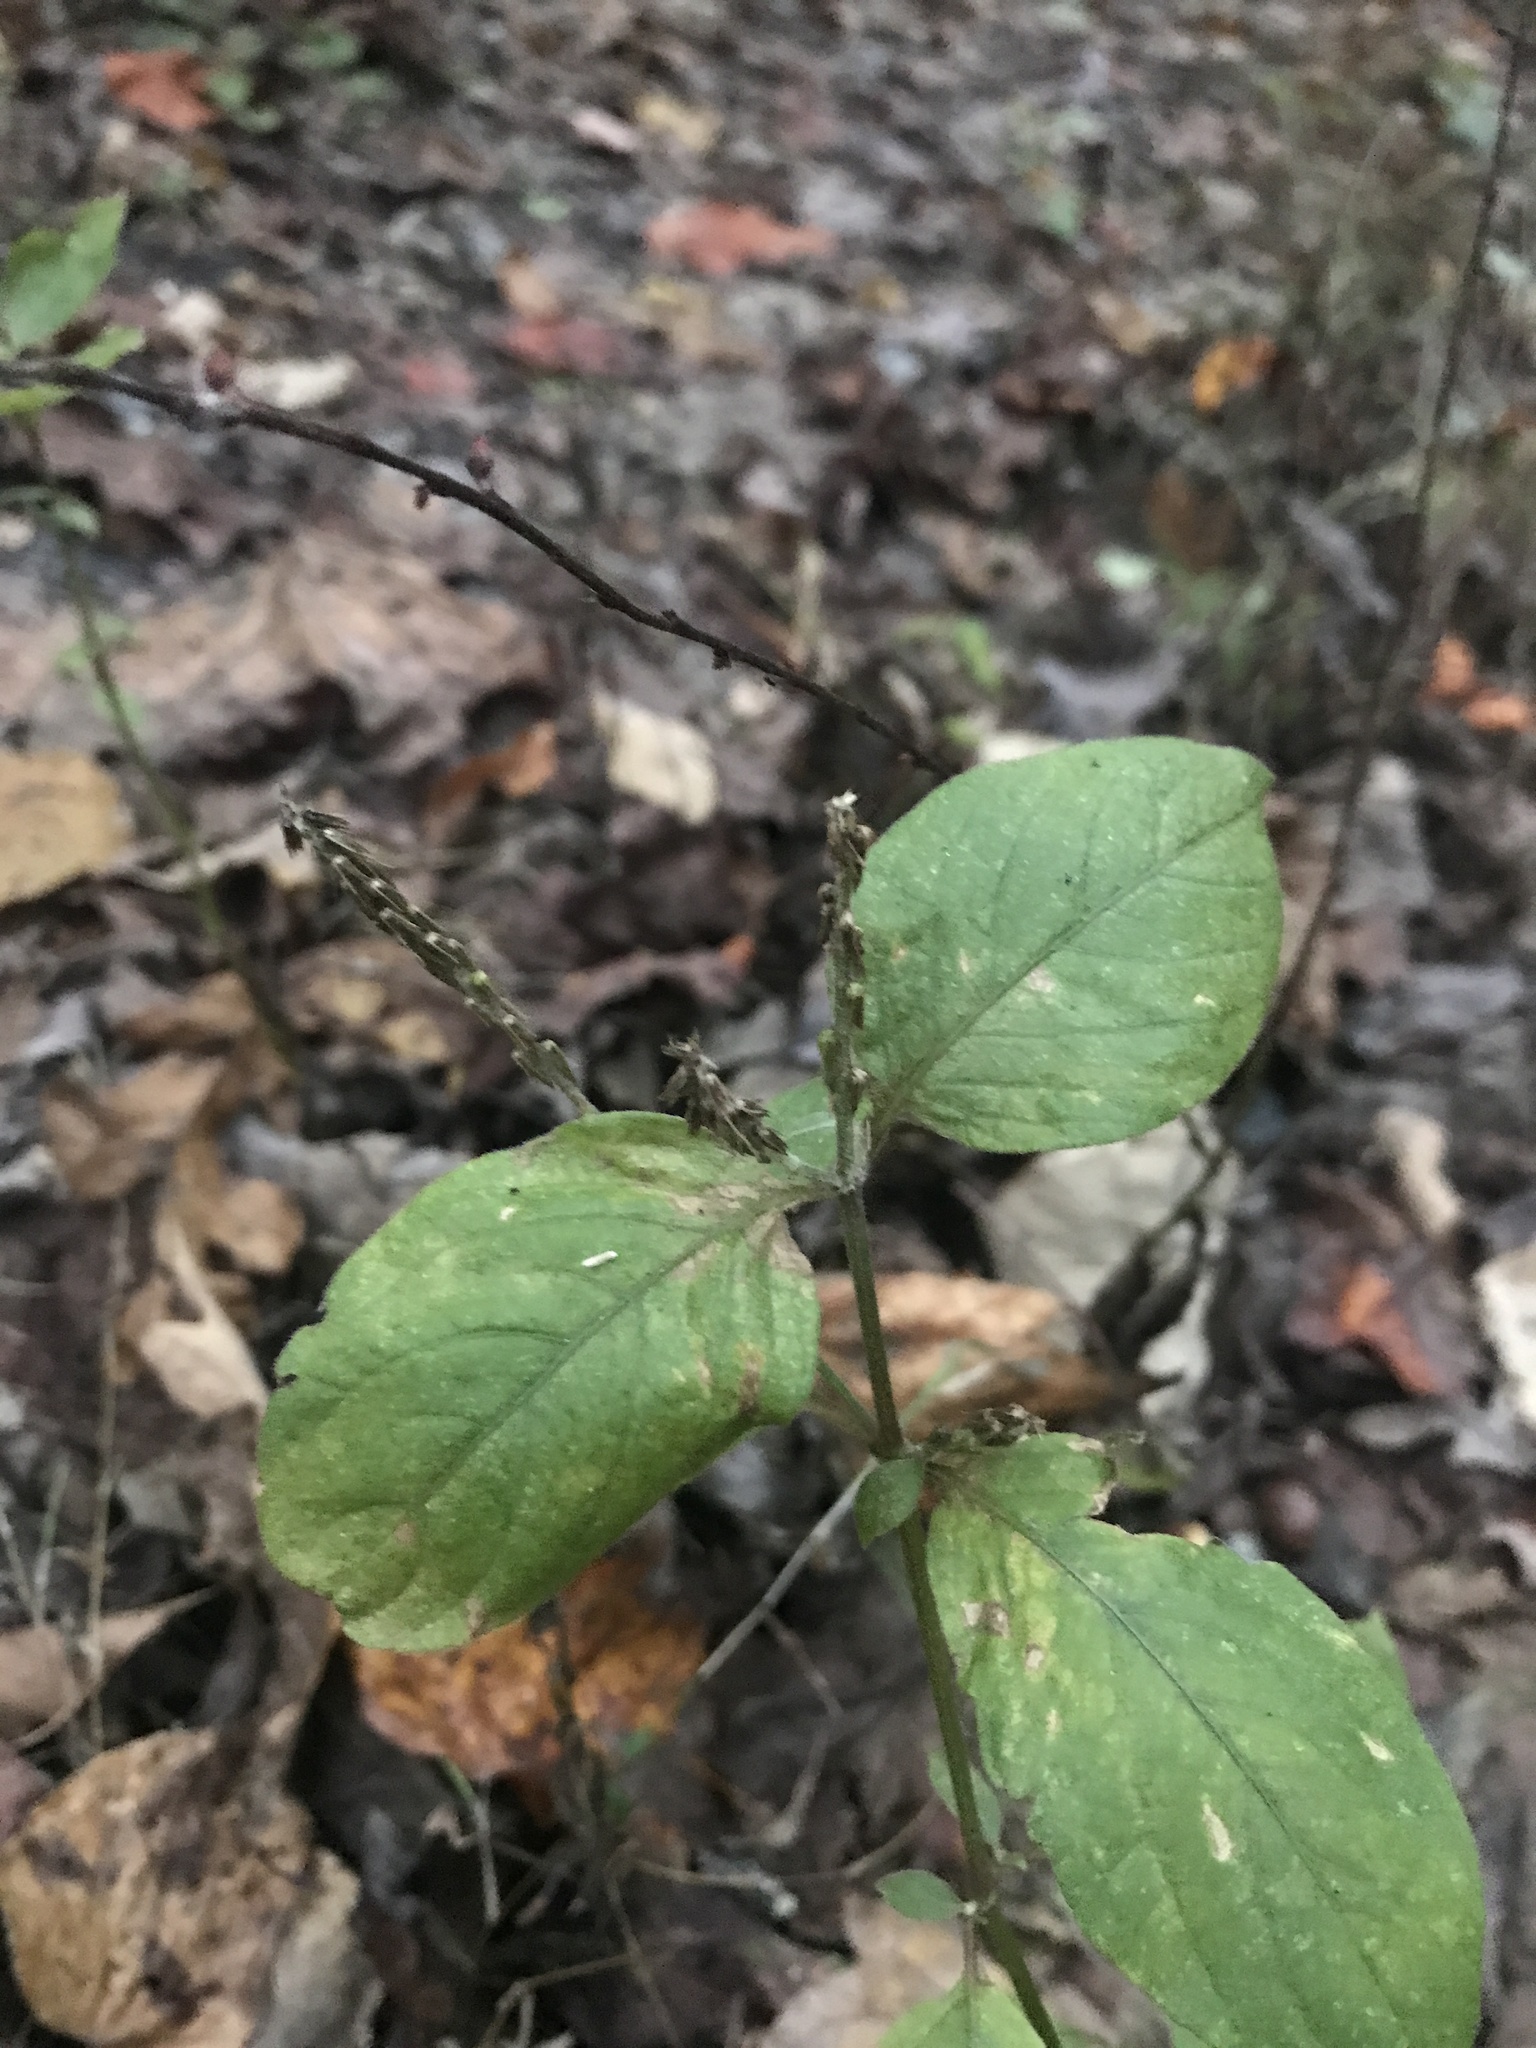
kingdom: Plantae
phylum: Tracheophyta
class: Magnoliopsida
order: Caryophyllales
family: Amaranthaceae
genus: Achyranthes
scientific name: Achyranthes bidentata
